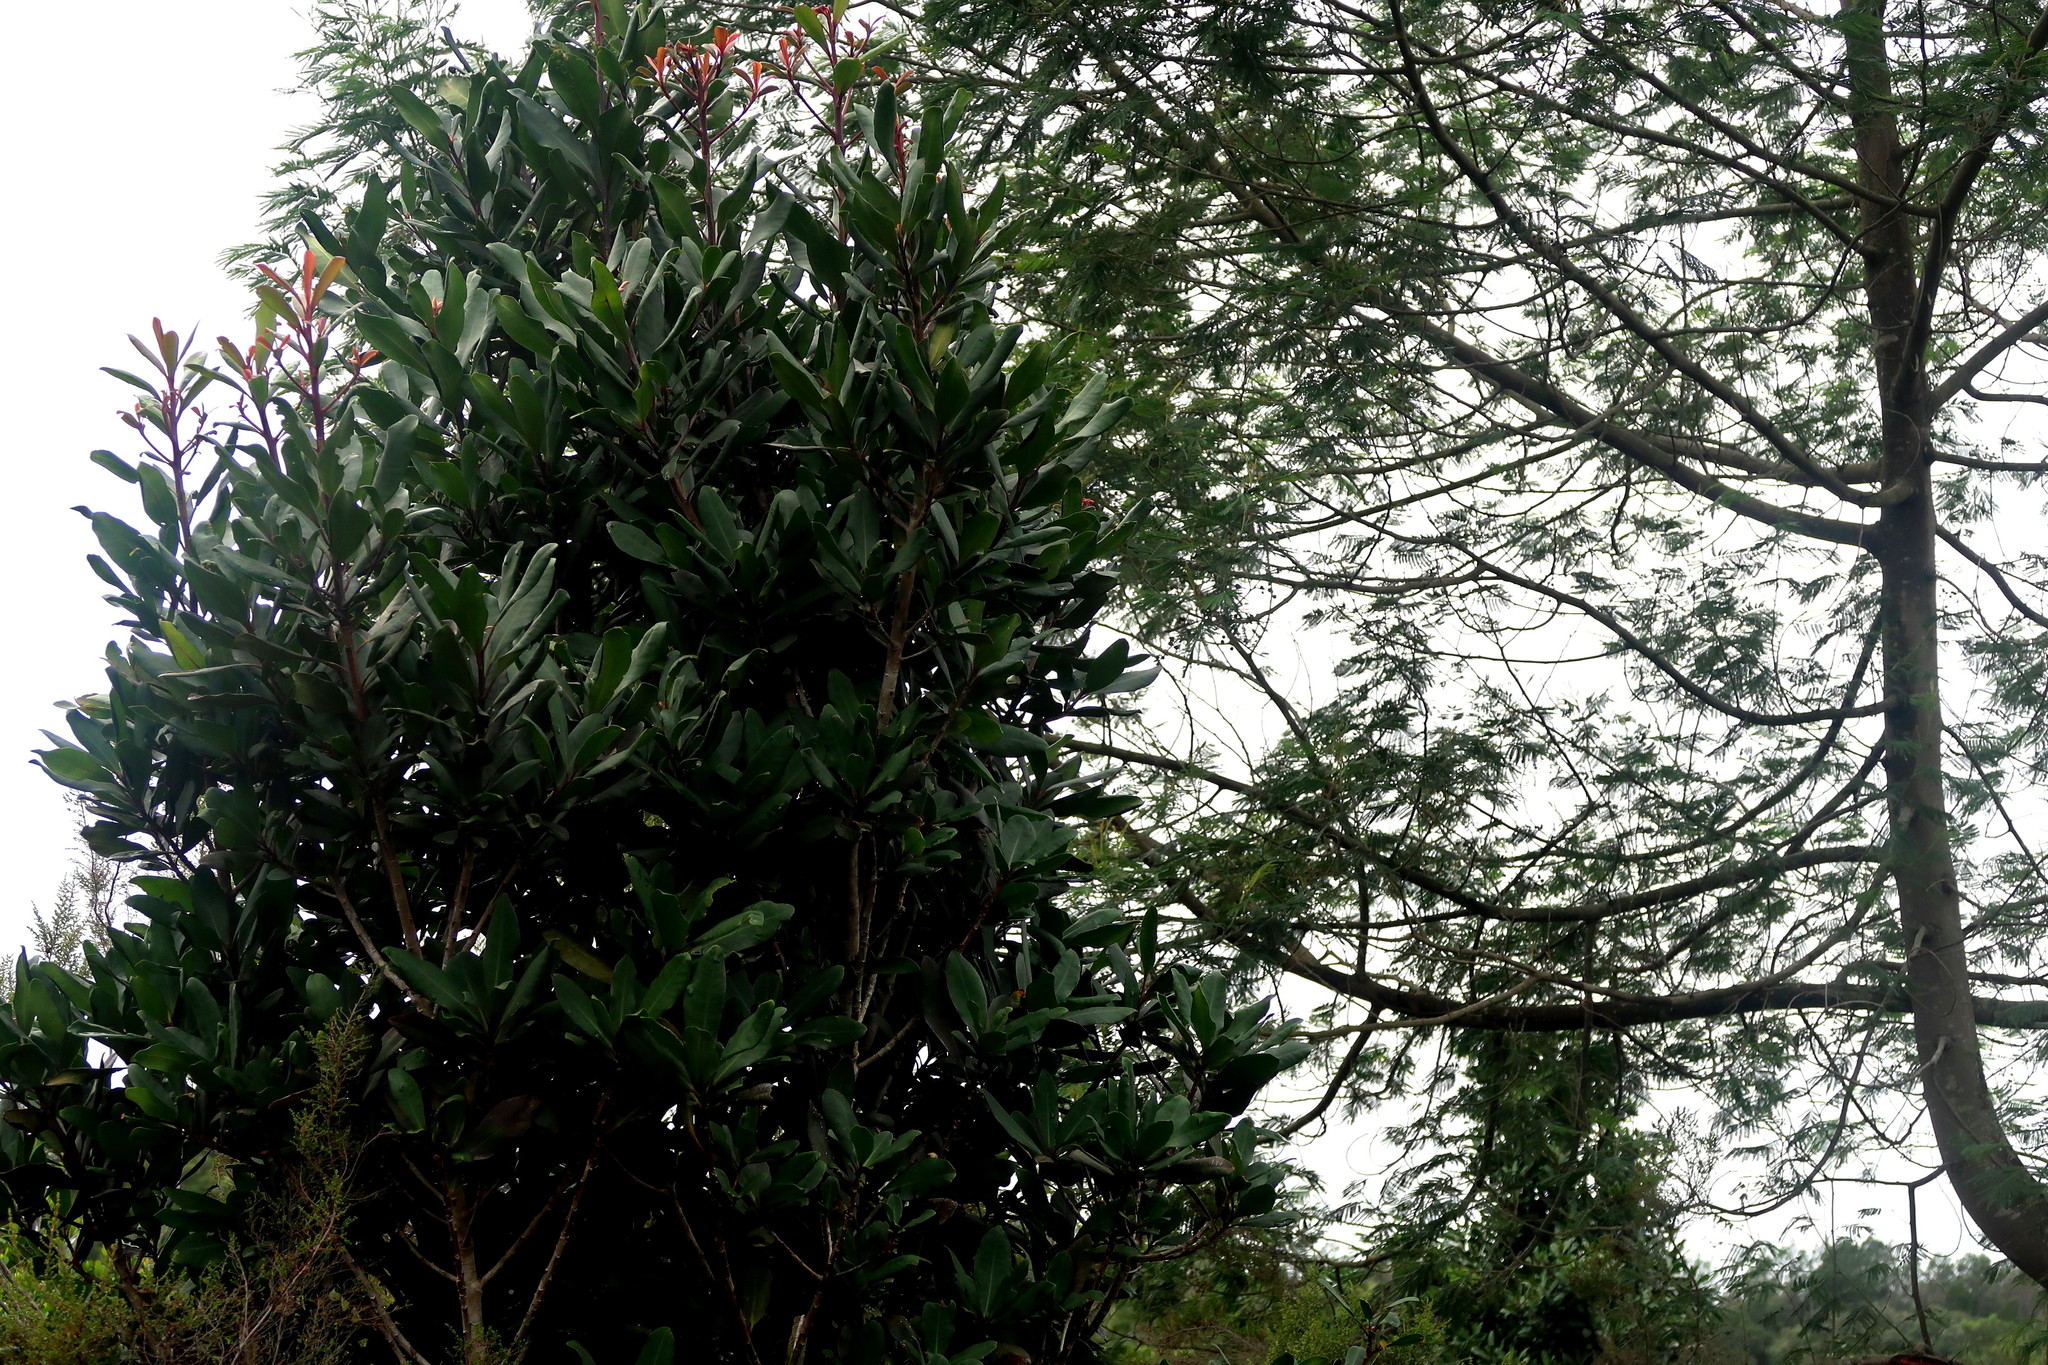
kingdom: Plantae
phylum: Tracheophyta
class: Magnoliopsida
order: Ericales
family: Primulaceae
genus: Myrsine
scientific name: Myrsine melanophloeos
